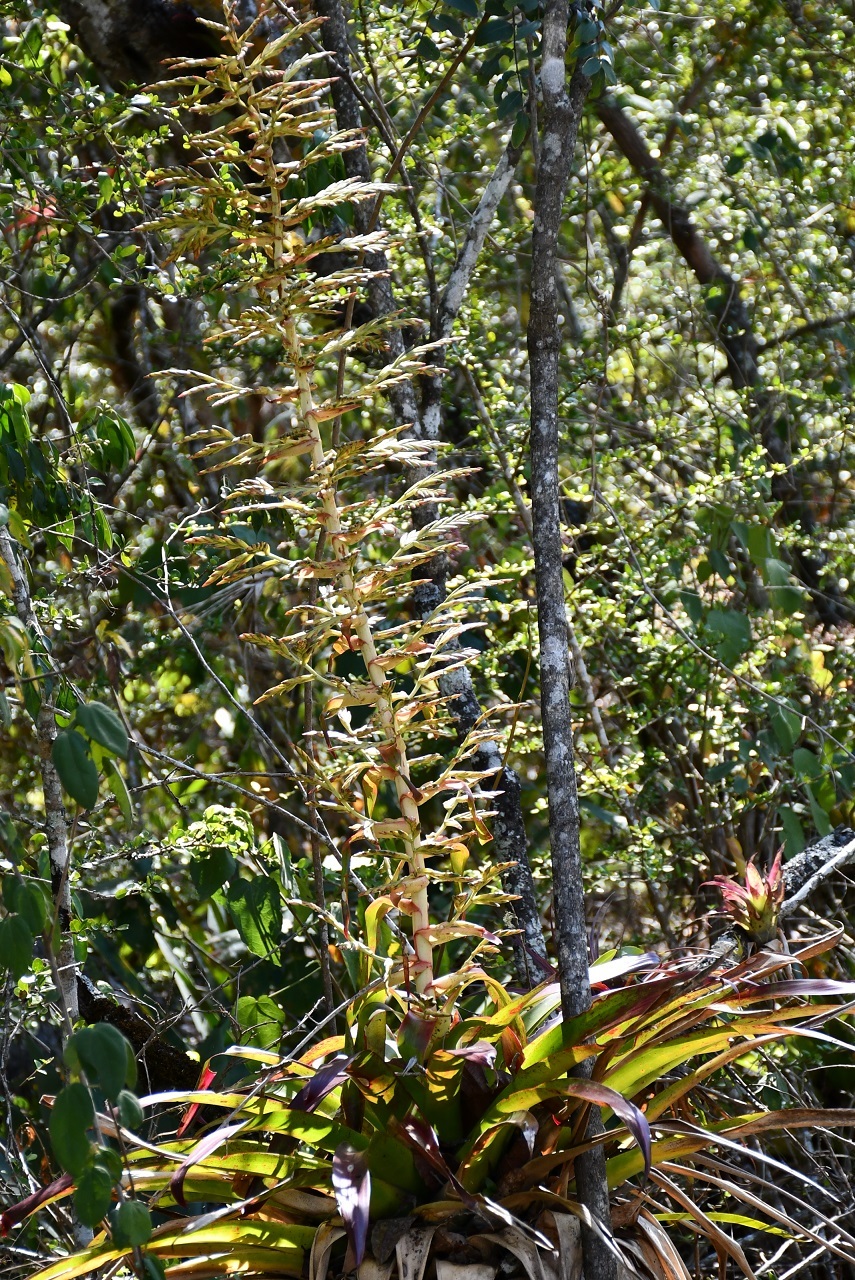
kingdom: Plantae
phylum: Tracheophyta
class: Liliopsida
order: Poales
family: Bromeliaceae
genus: Tillandsia
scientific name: Tillandsia excelsa
